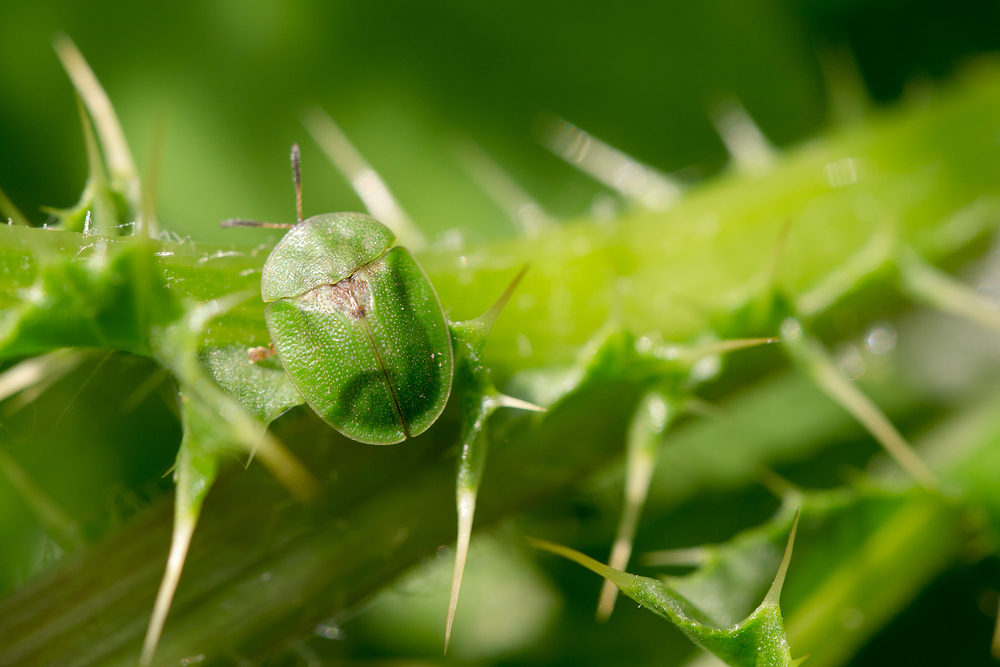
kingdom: Animalia
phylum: Arthropoda
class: Insecta
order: Coleoptera
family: Chrysomelidae
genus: Cassida
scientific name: Cassida rubiginosa
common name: Thistle tortoise beetle
